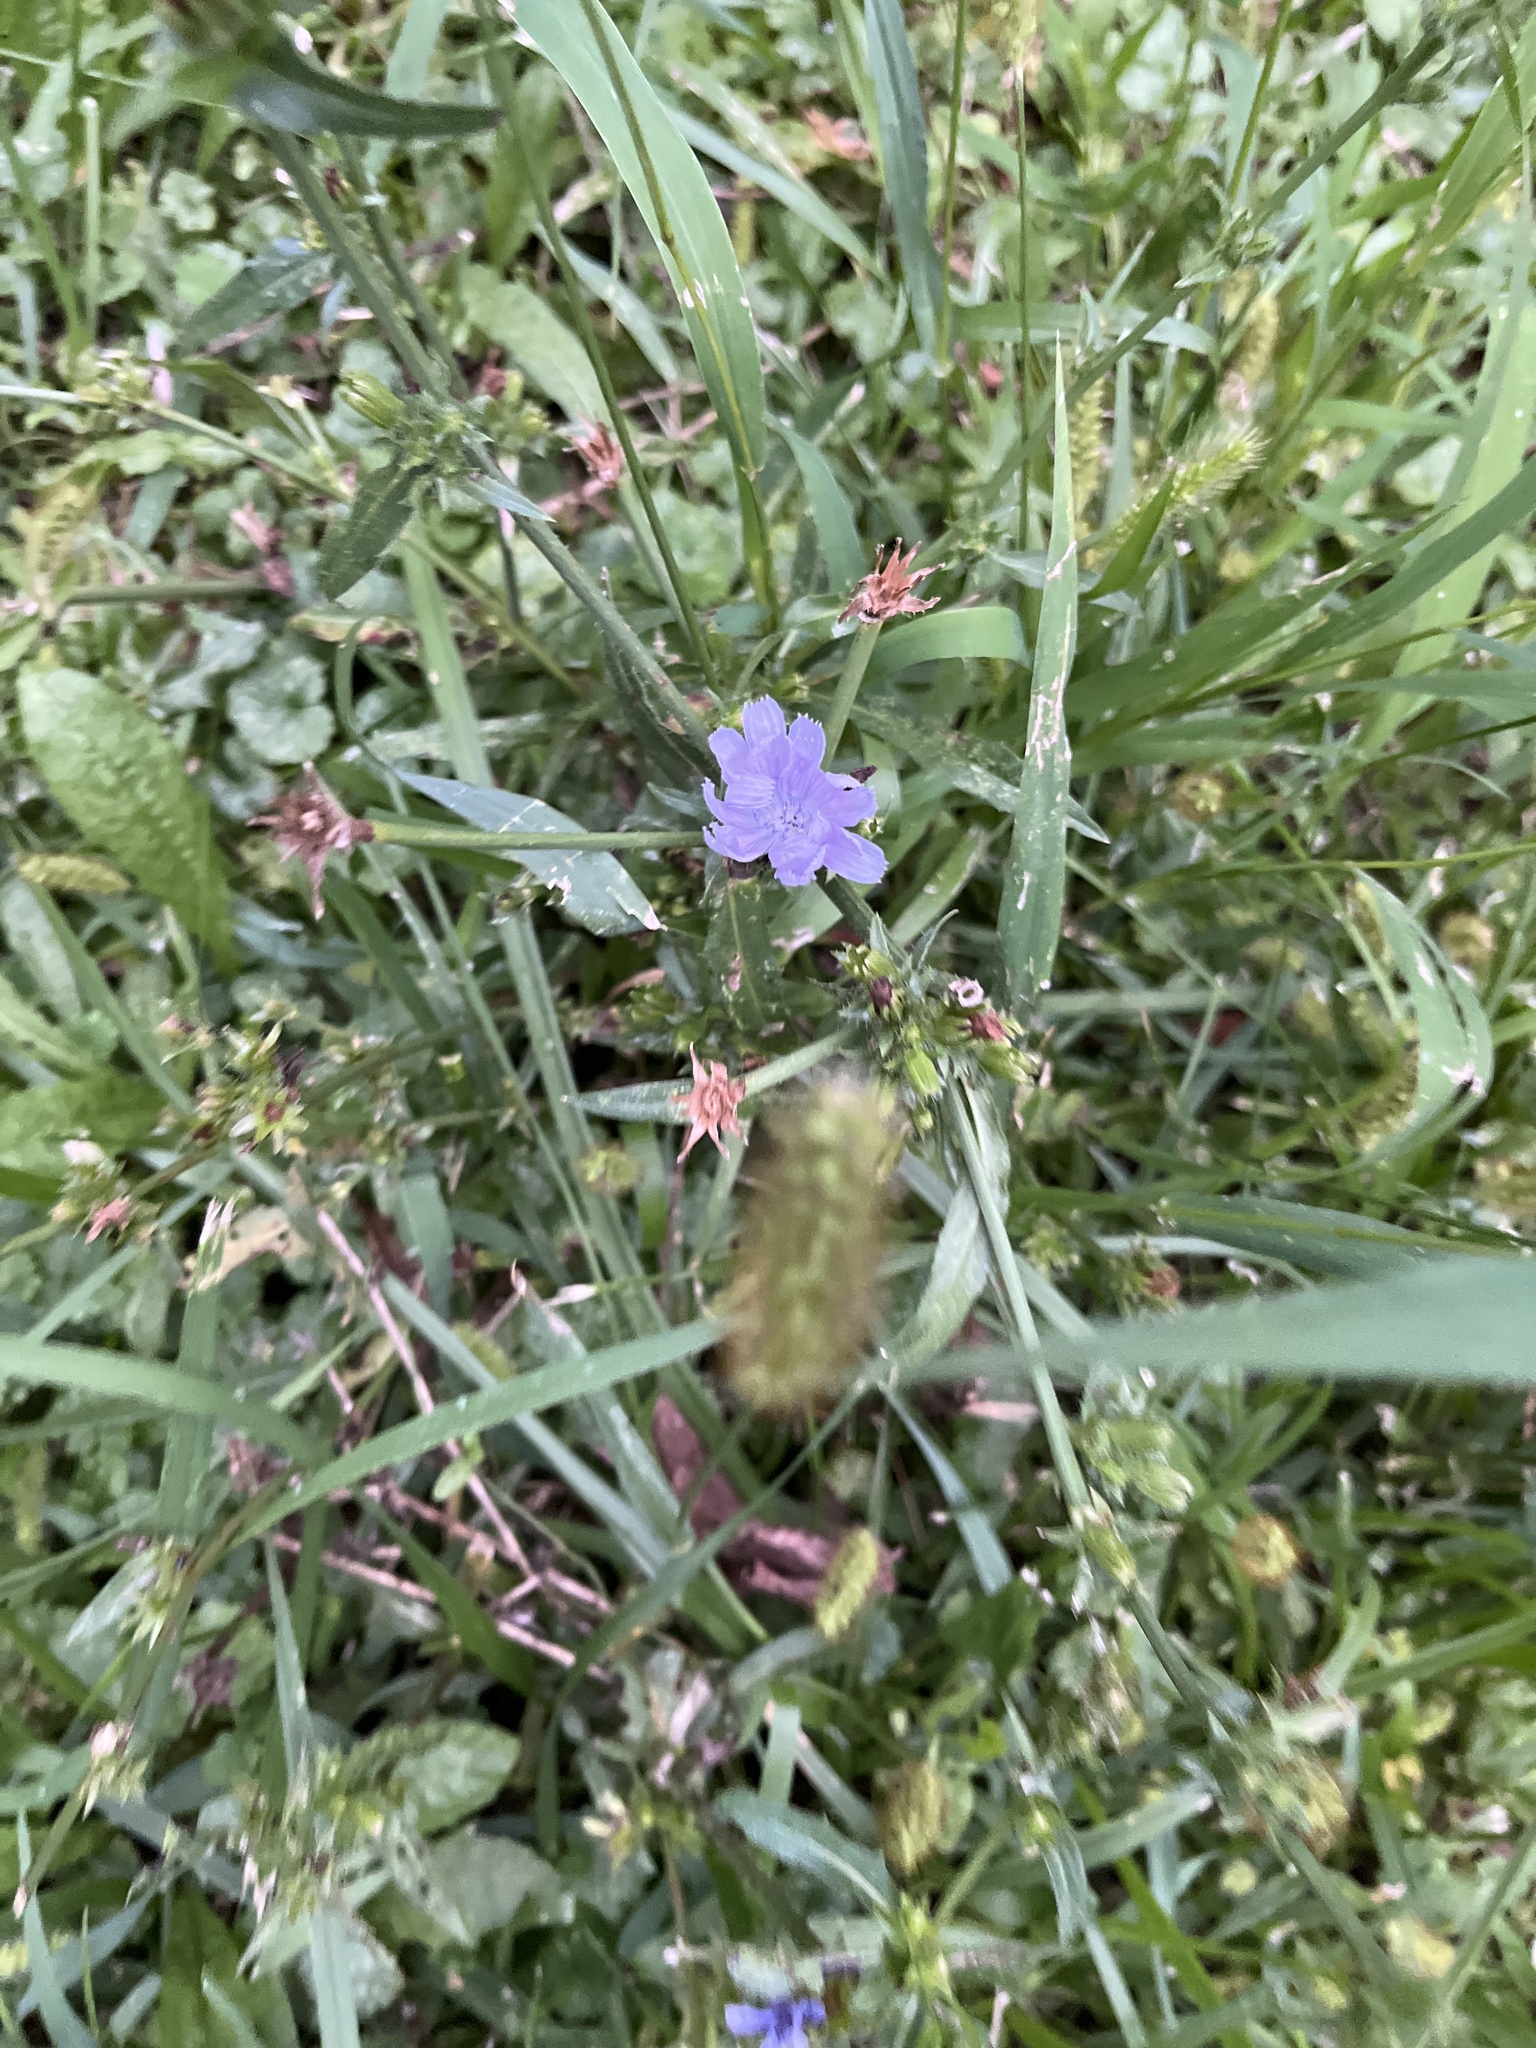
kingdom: Plantae
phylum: Tracheophyta
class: Magnoliopsida
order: Asterales
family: Asteraceae
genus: Cichorium
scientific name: Cichorium intybus
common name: Chicory
